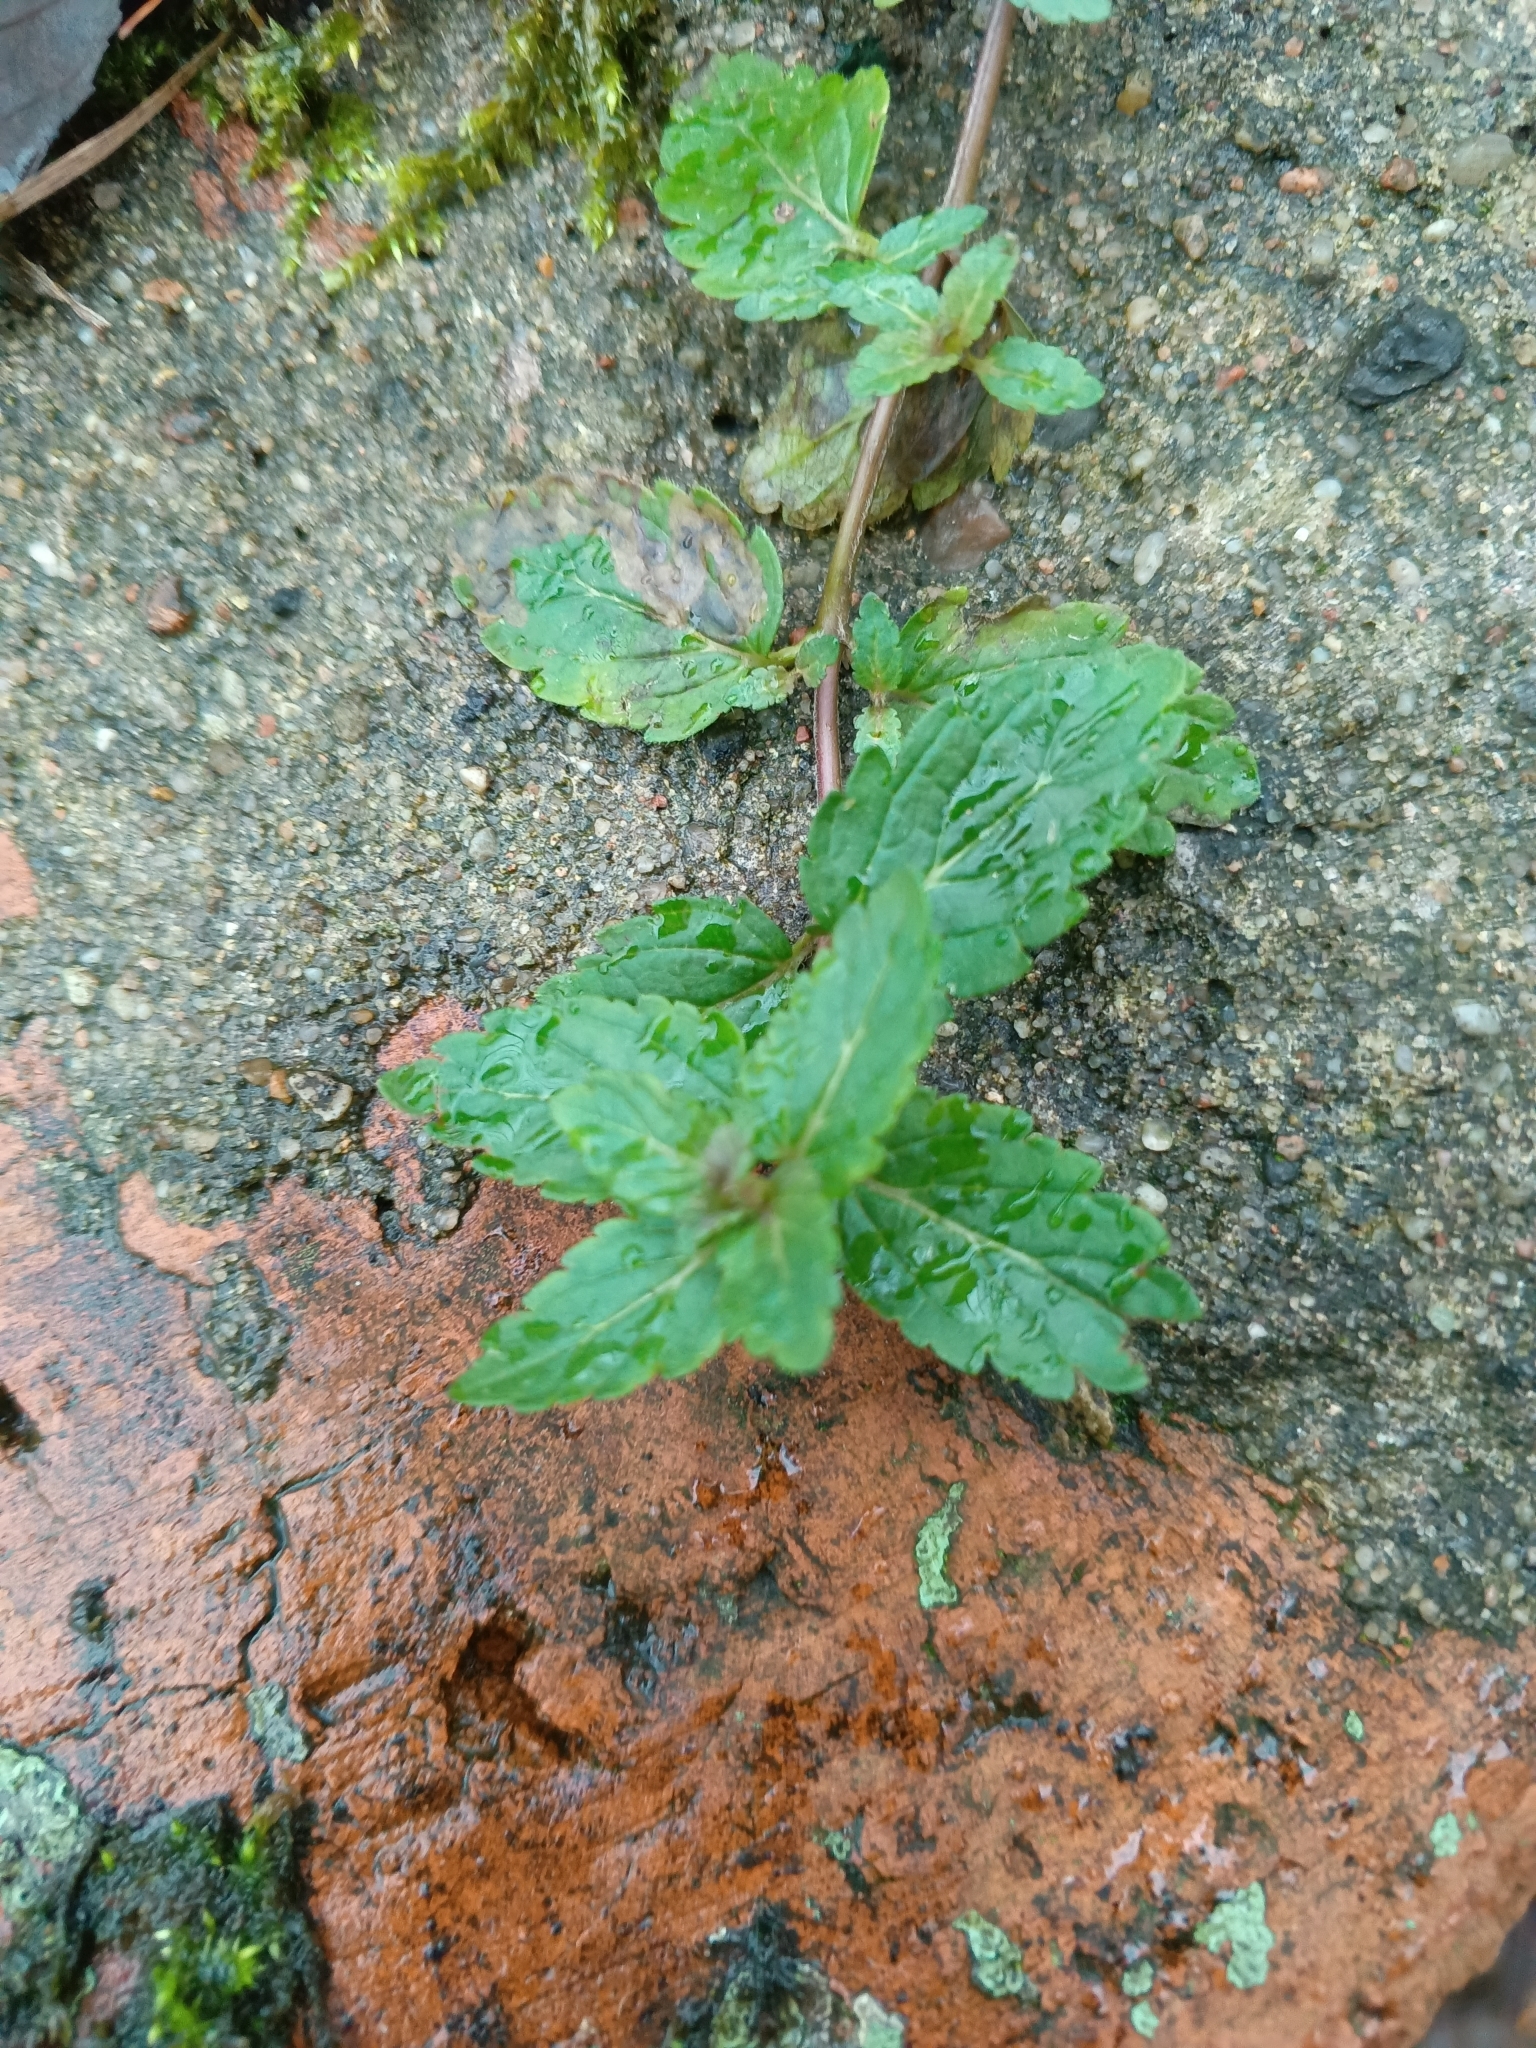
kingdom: Plantae
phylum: Tracheophyta
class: Magnoliopsida
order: Lamiales
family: Plantaginaceae
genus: Veronica
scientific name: Veronica chamaedrys
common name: Germander speedwell
